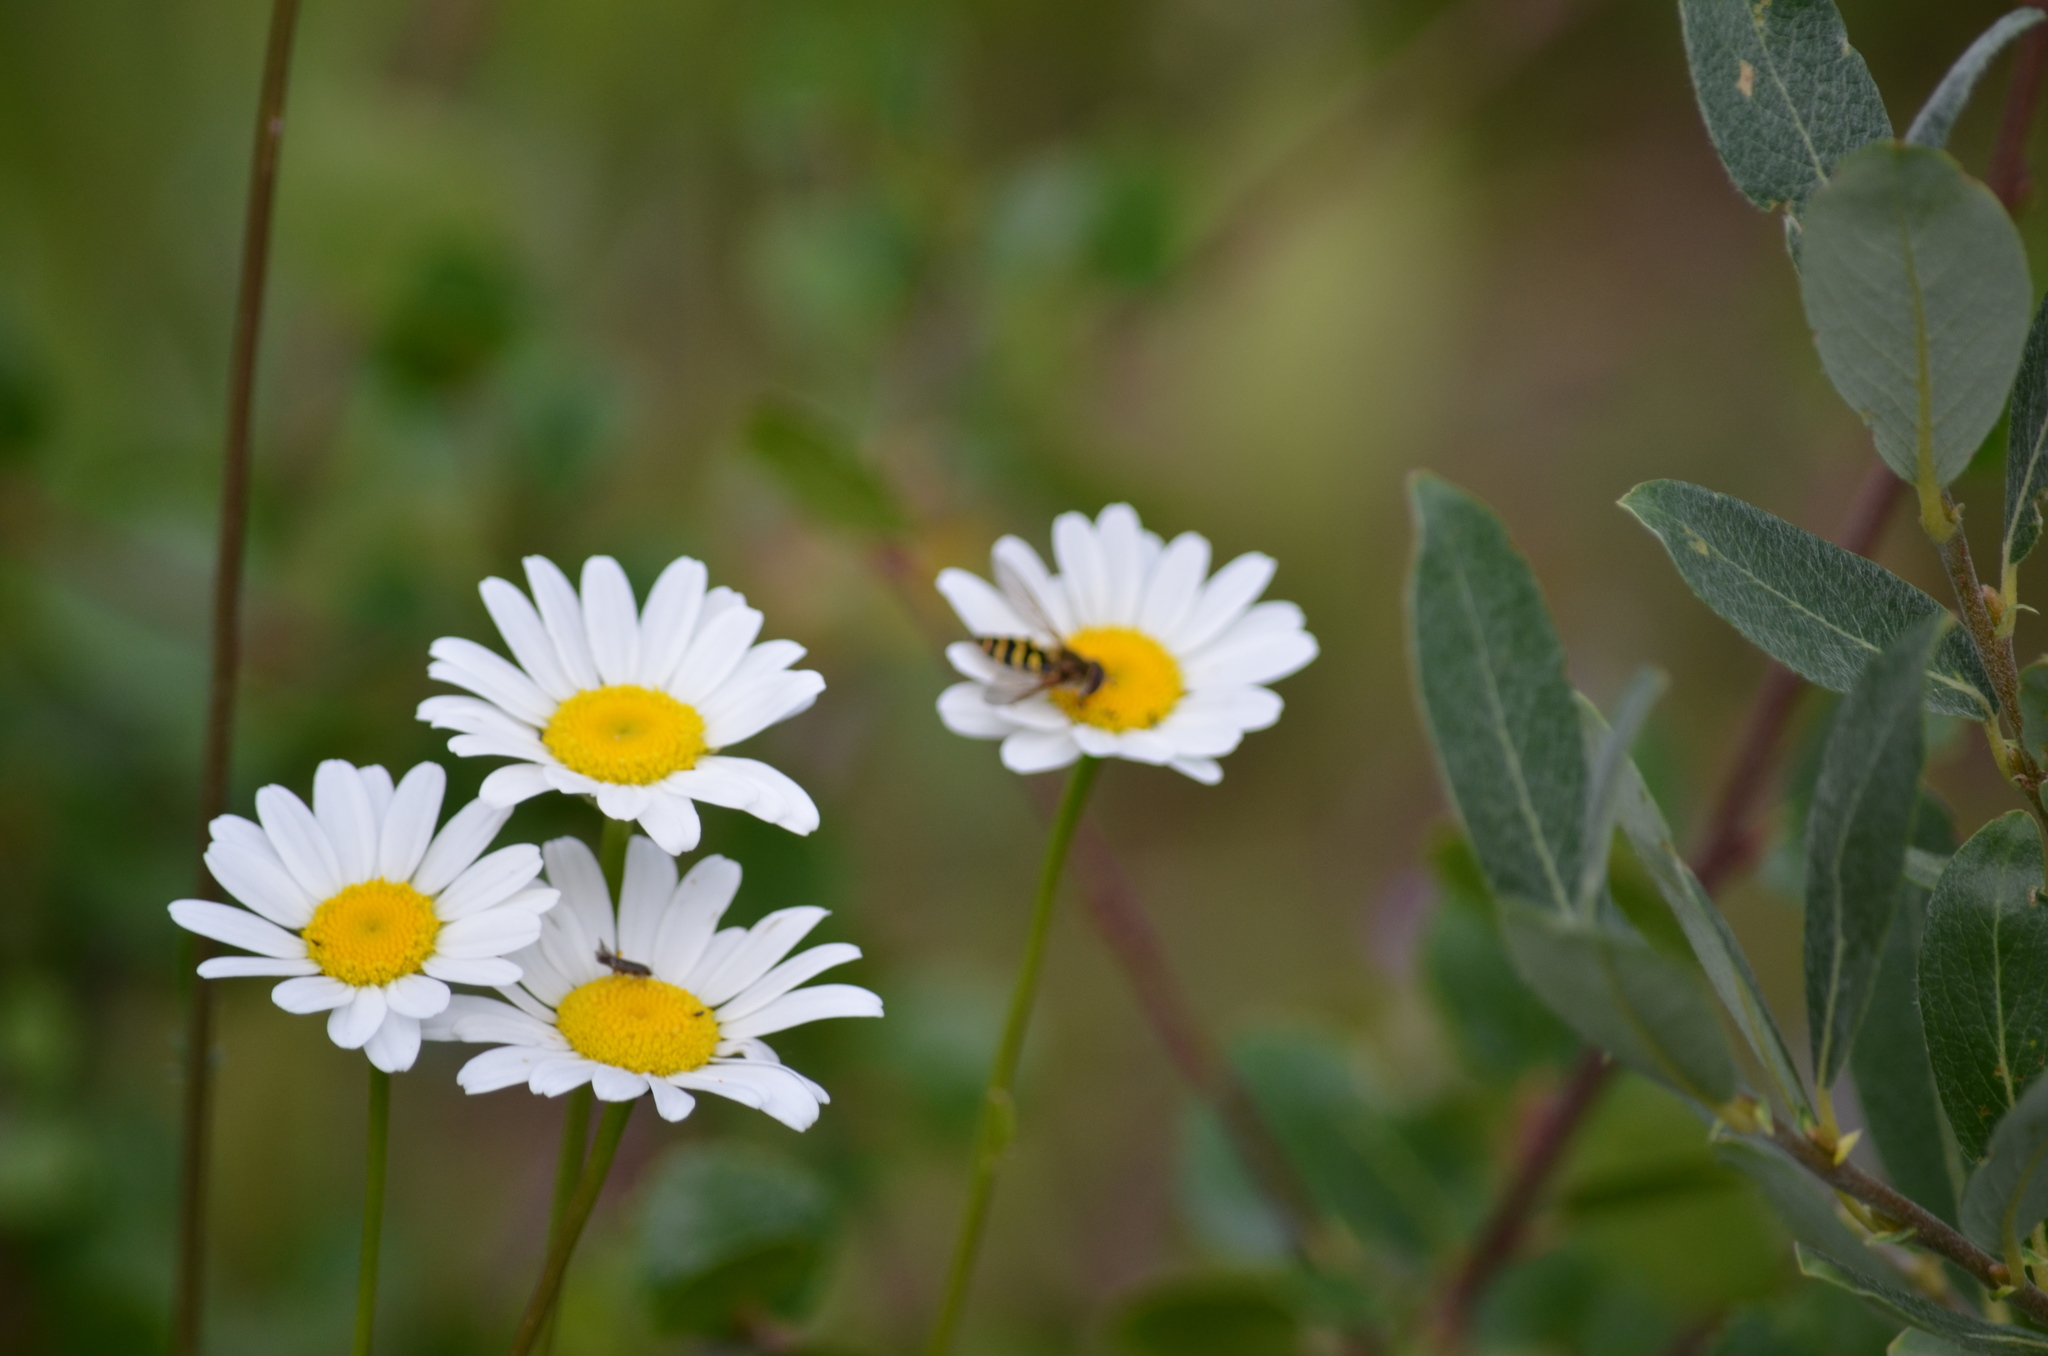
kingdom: Plantae
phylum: Tracheophyta
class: Magnoliopsida
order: Asterales
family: Asteraceae
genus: Leucanthemum
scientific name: Leucanthemum vulgare
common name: Oxeye daisy
